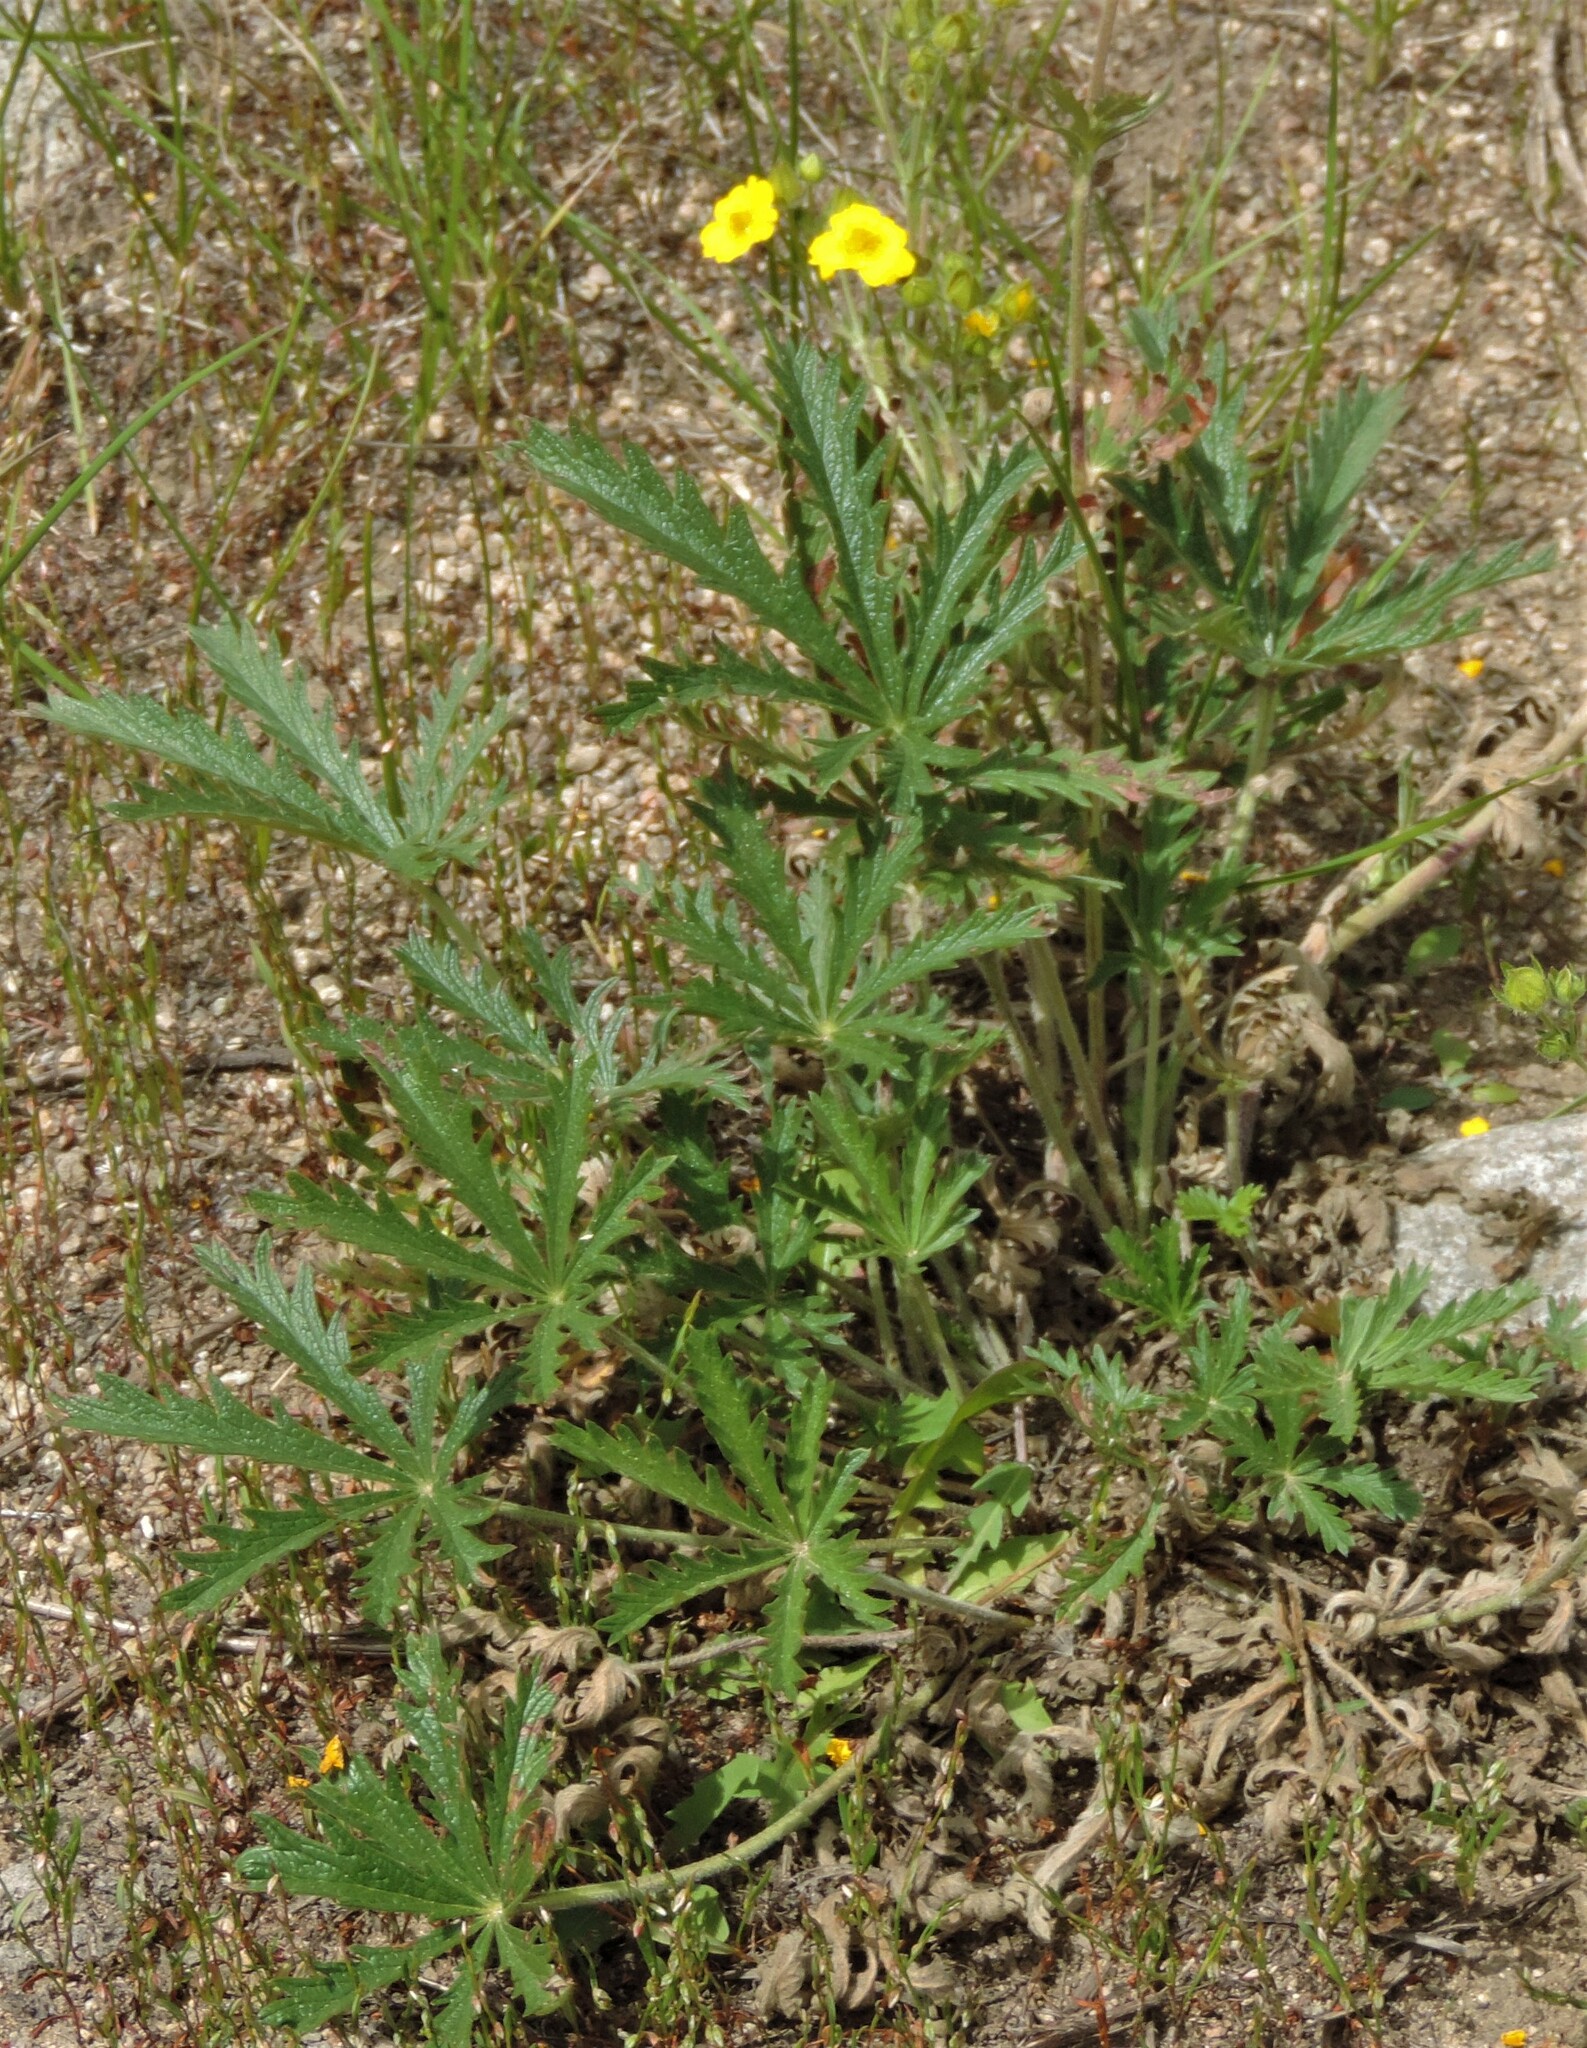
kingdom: Plantae
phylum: Tracheophyta
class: Magnoliopsida
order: Rosales
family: Rosaceae
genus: Potentilla
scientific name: Potentilla gracilis
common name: Graceful cinquefoil
